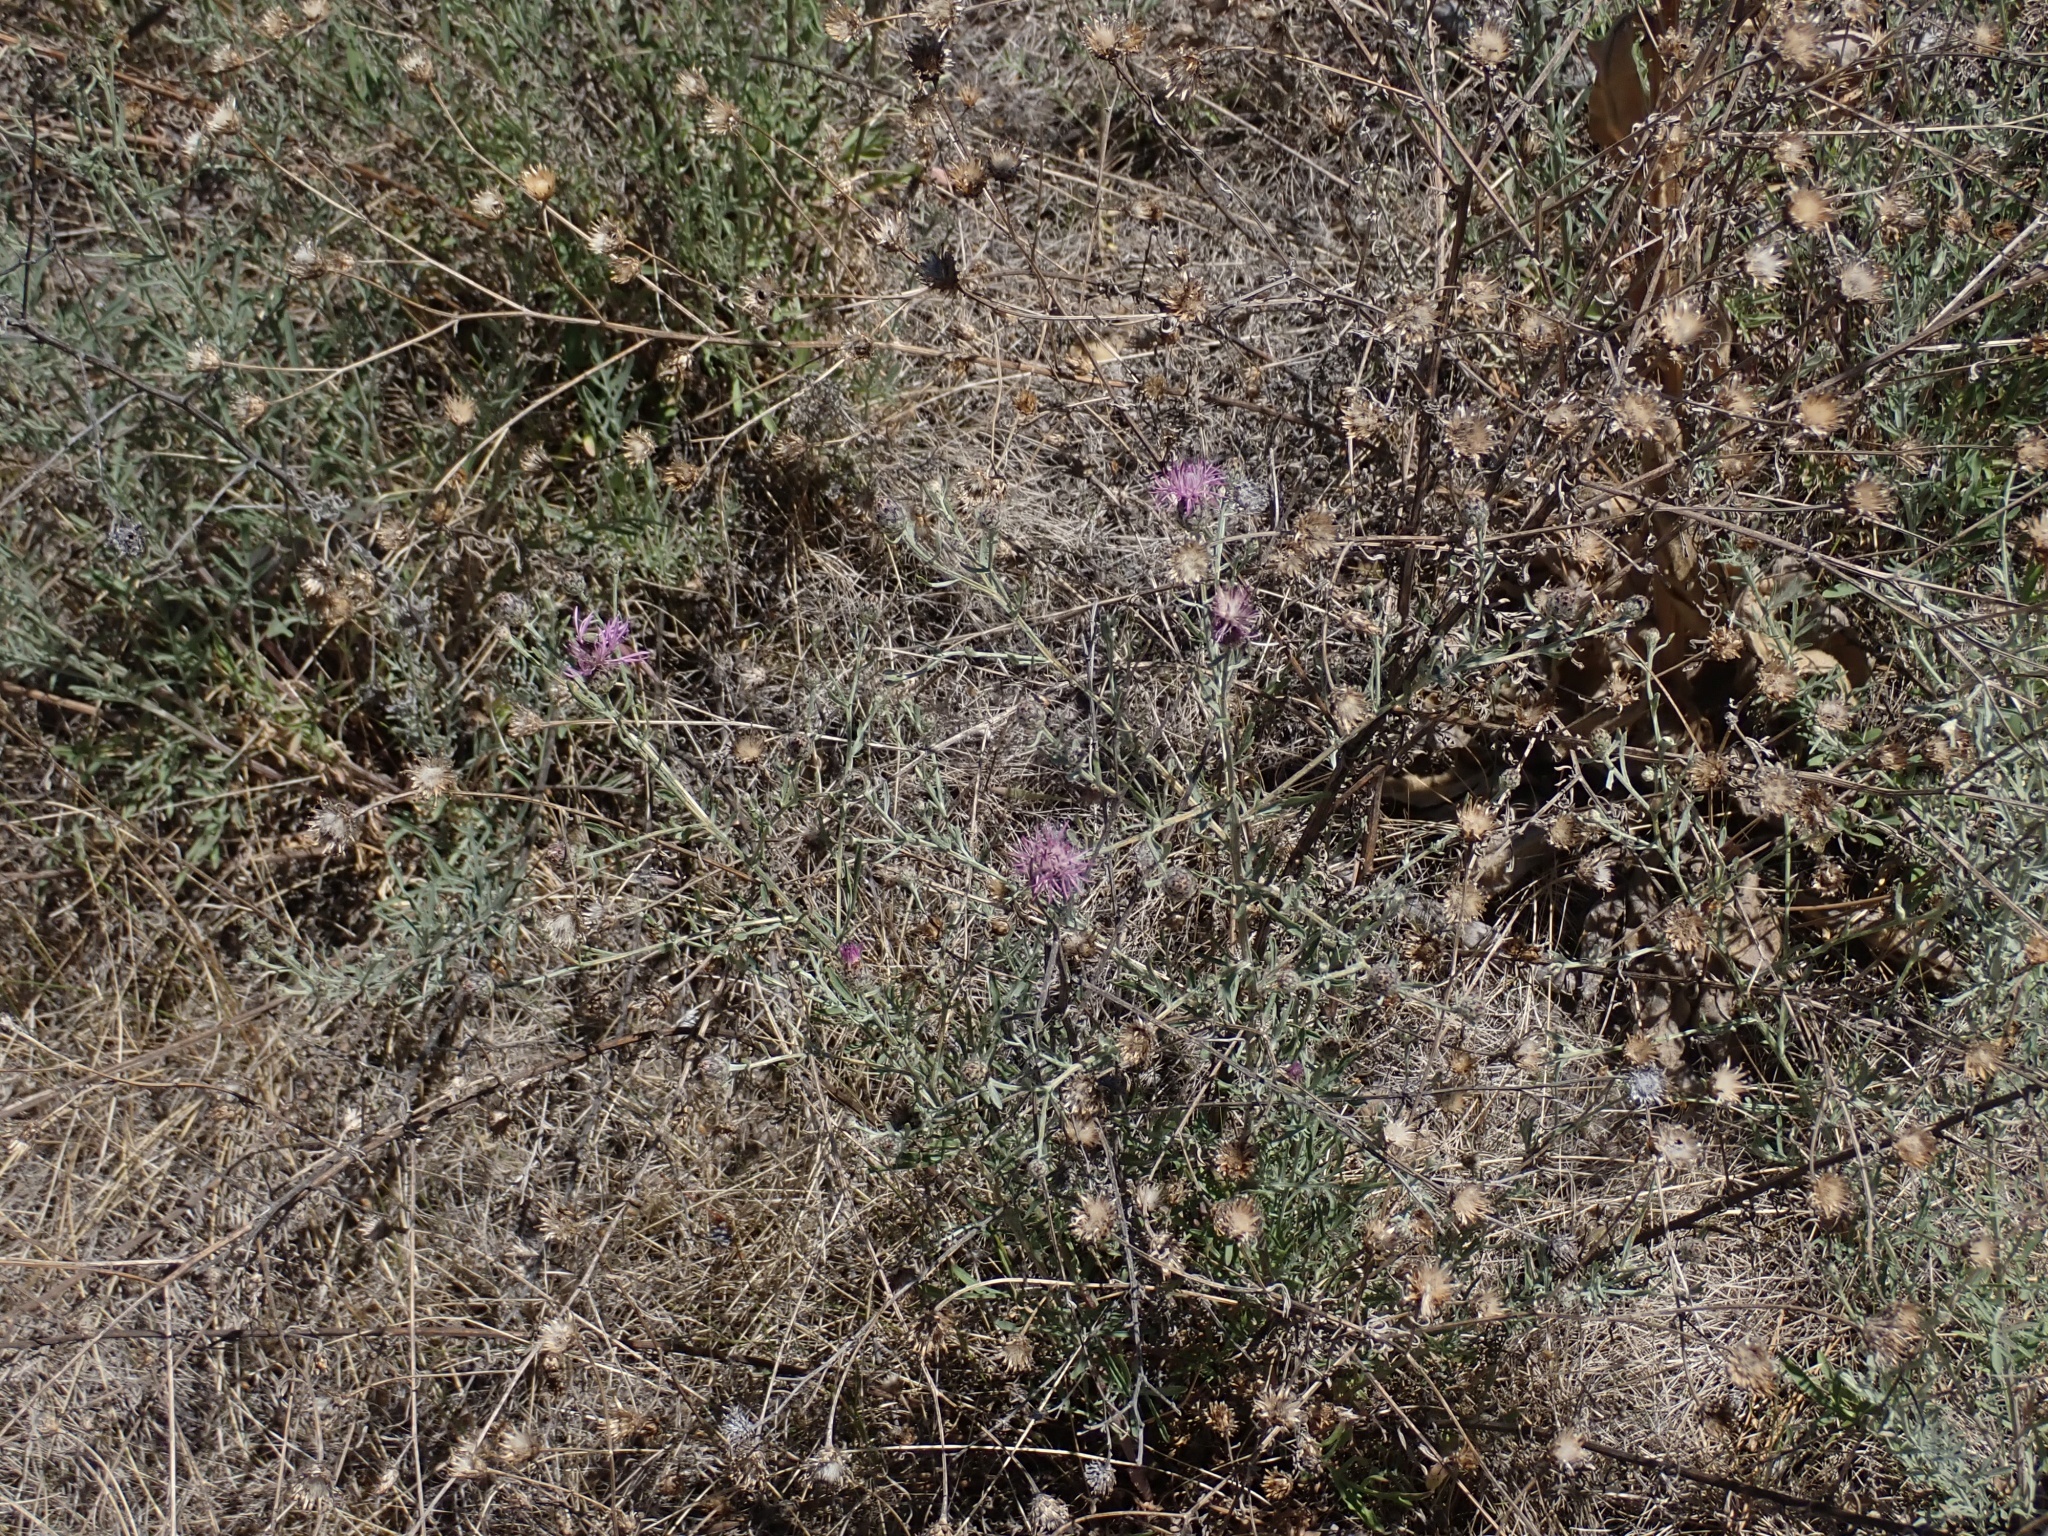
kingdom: Plantae
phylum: Tracheophyta
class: Magnoliopsida
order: Asterales
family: Asteraceae
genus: Centaurea
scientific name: Centaurea stoebe
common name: Spotted knapweed
